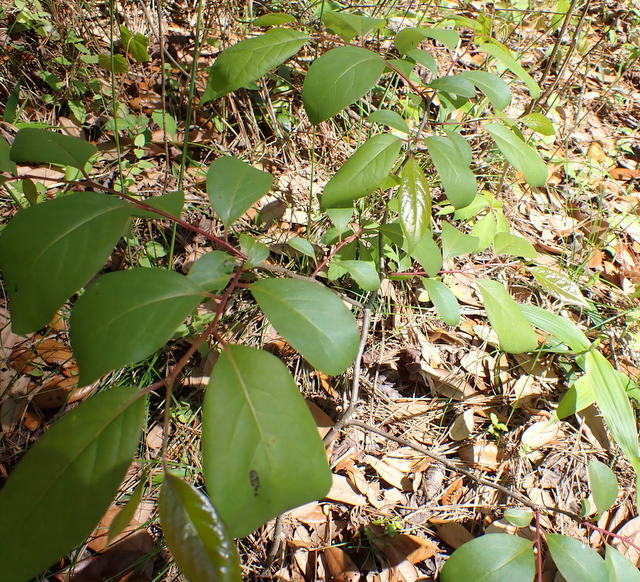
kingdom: Plantae
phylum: Tracheophyta
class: Magnoliopsida
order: Ericales
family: Ebenaceae
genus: Diospyros
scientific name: Diospyros virginiana
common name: Persimmon
